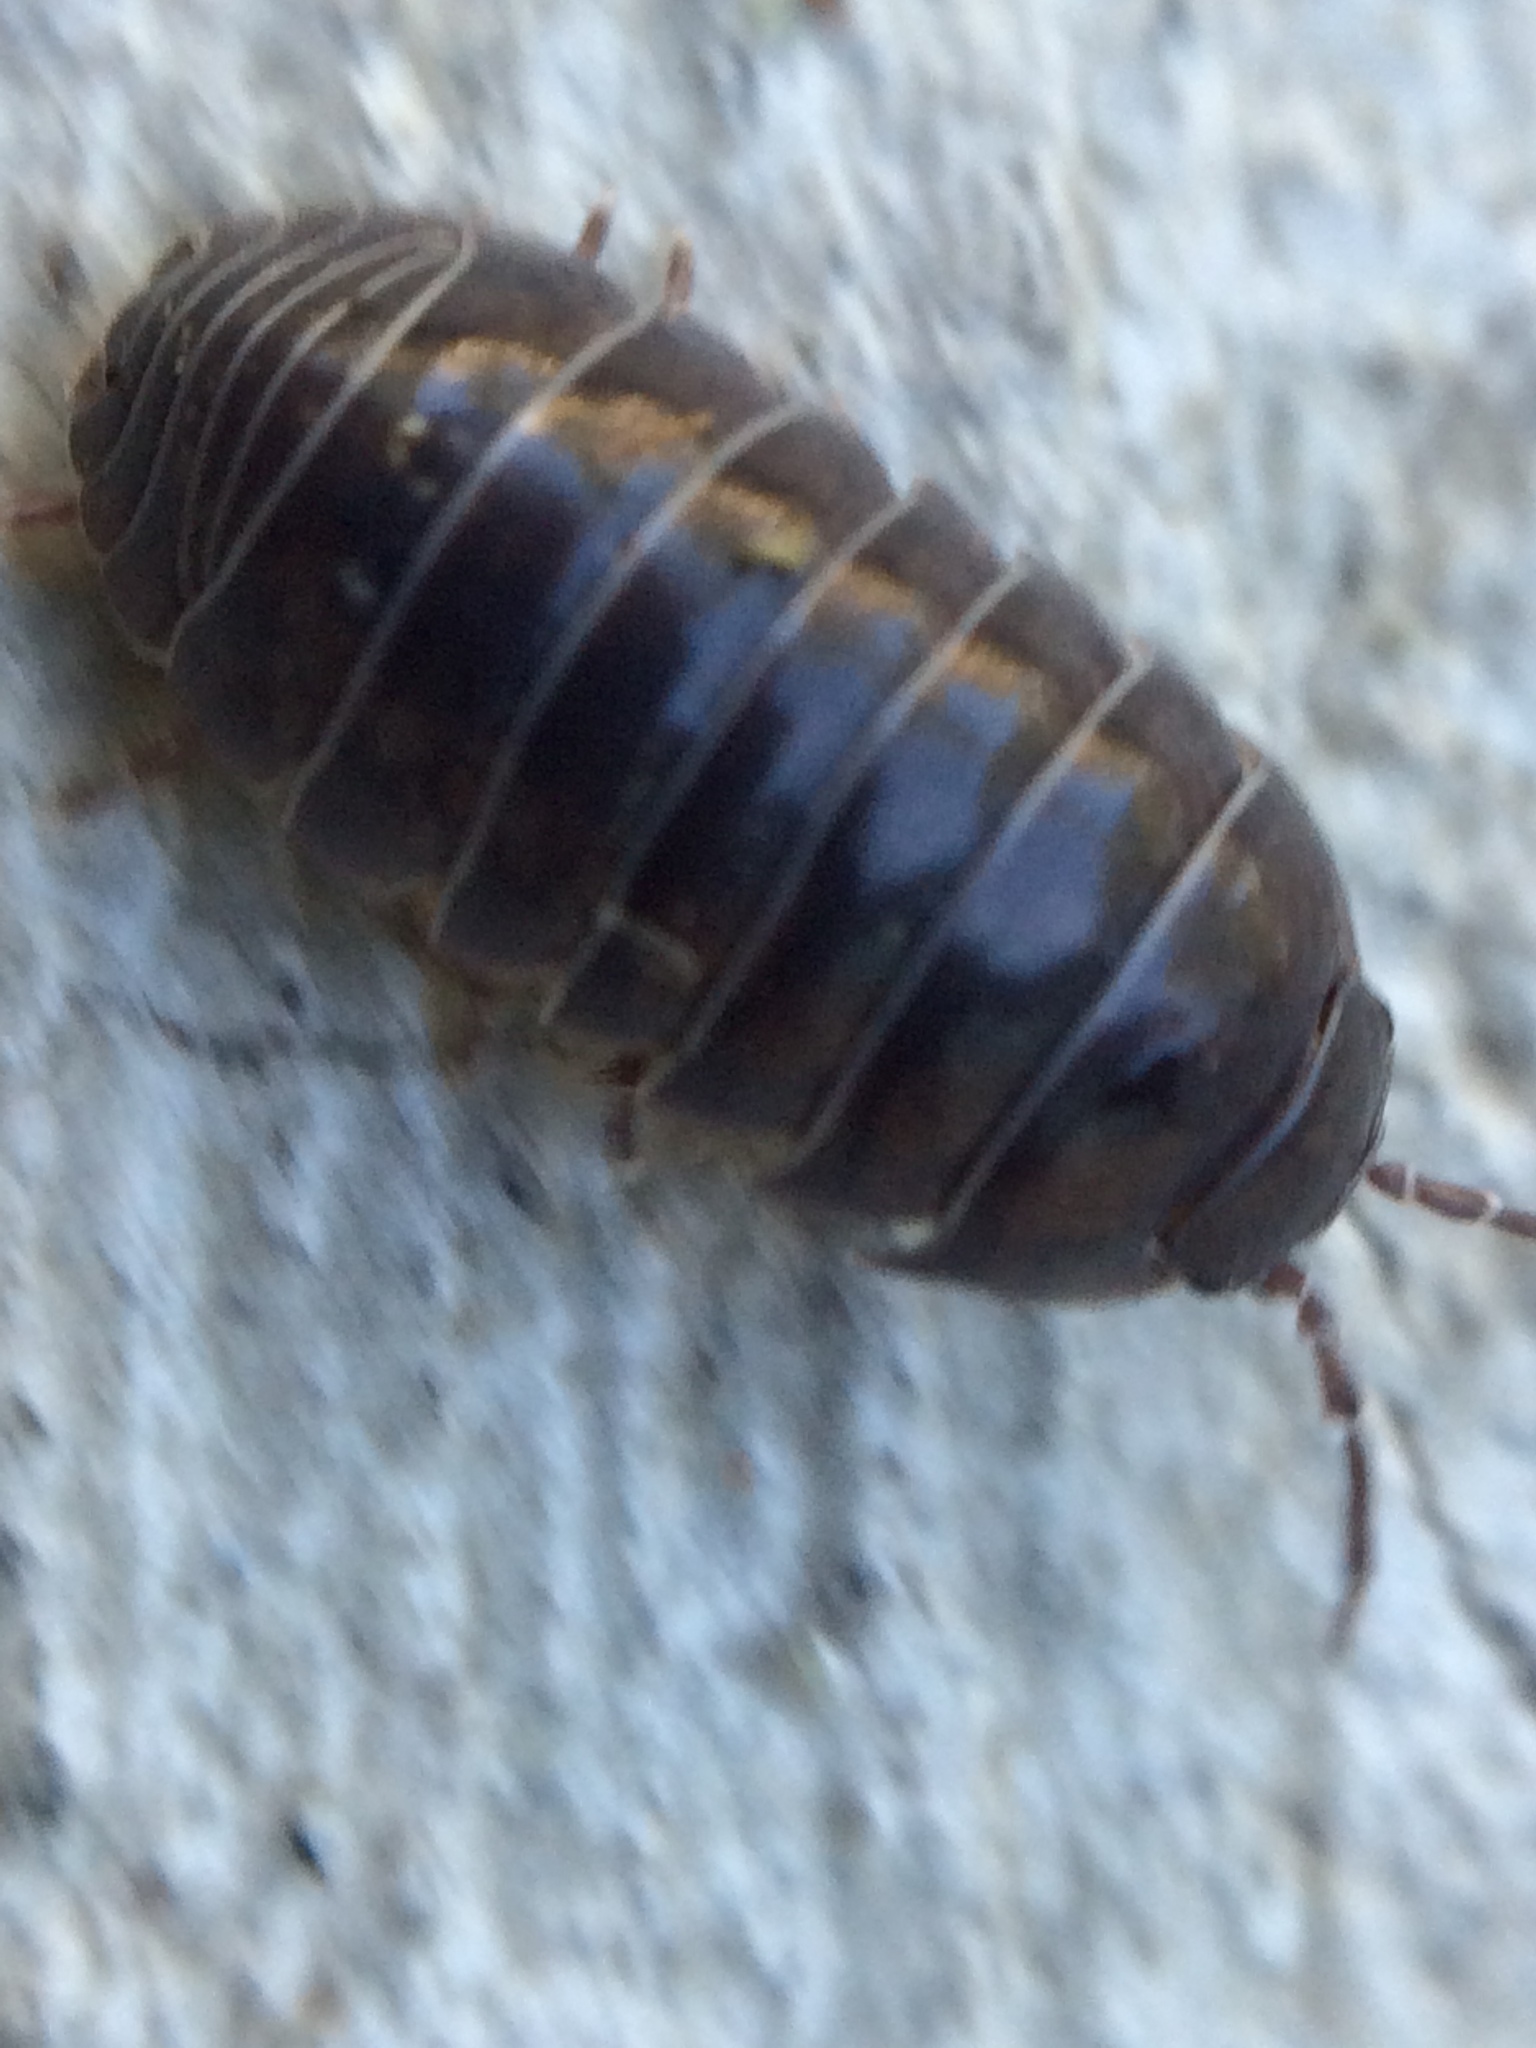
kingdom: Animalia
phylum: Arthropoda
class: Malacostraca
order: Isopoda
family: Armadillidiidae
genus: Armadillidium
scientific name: Armadillidium vulgare
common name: Common pill woodlouse
